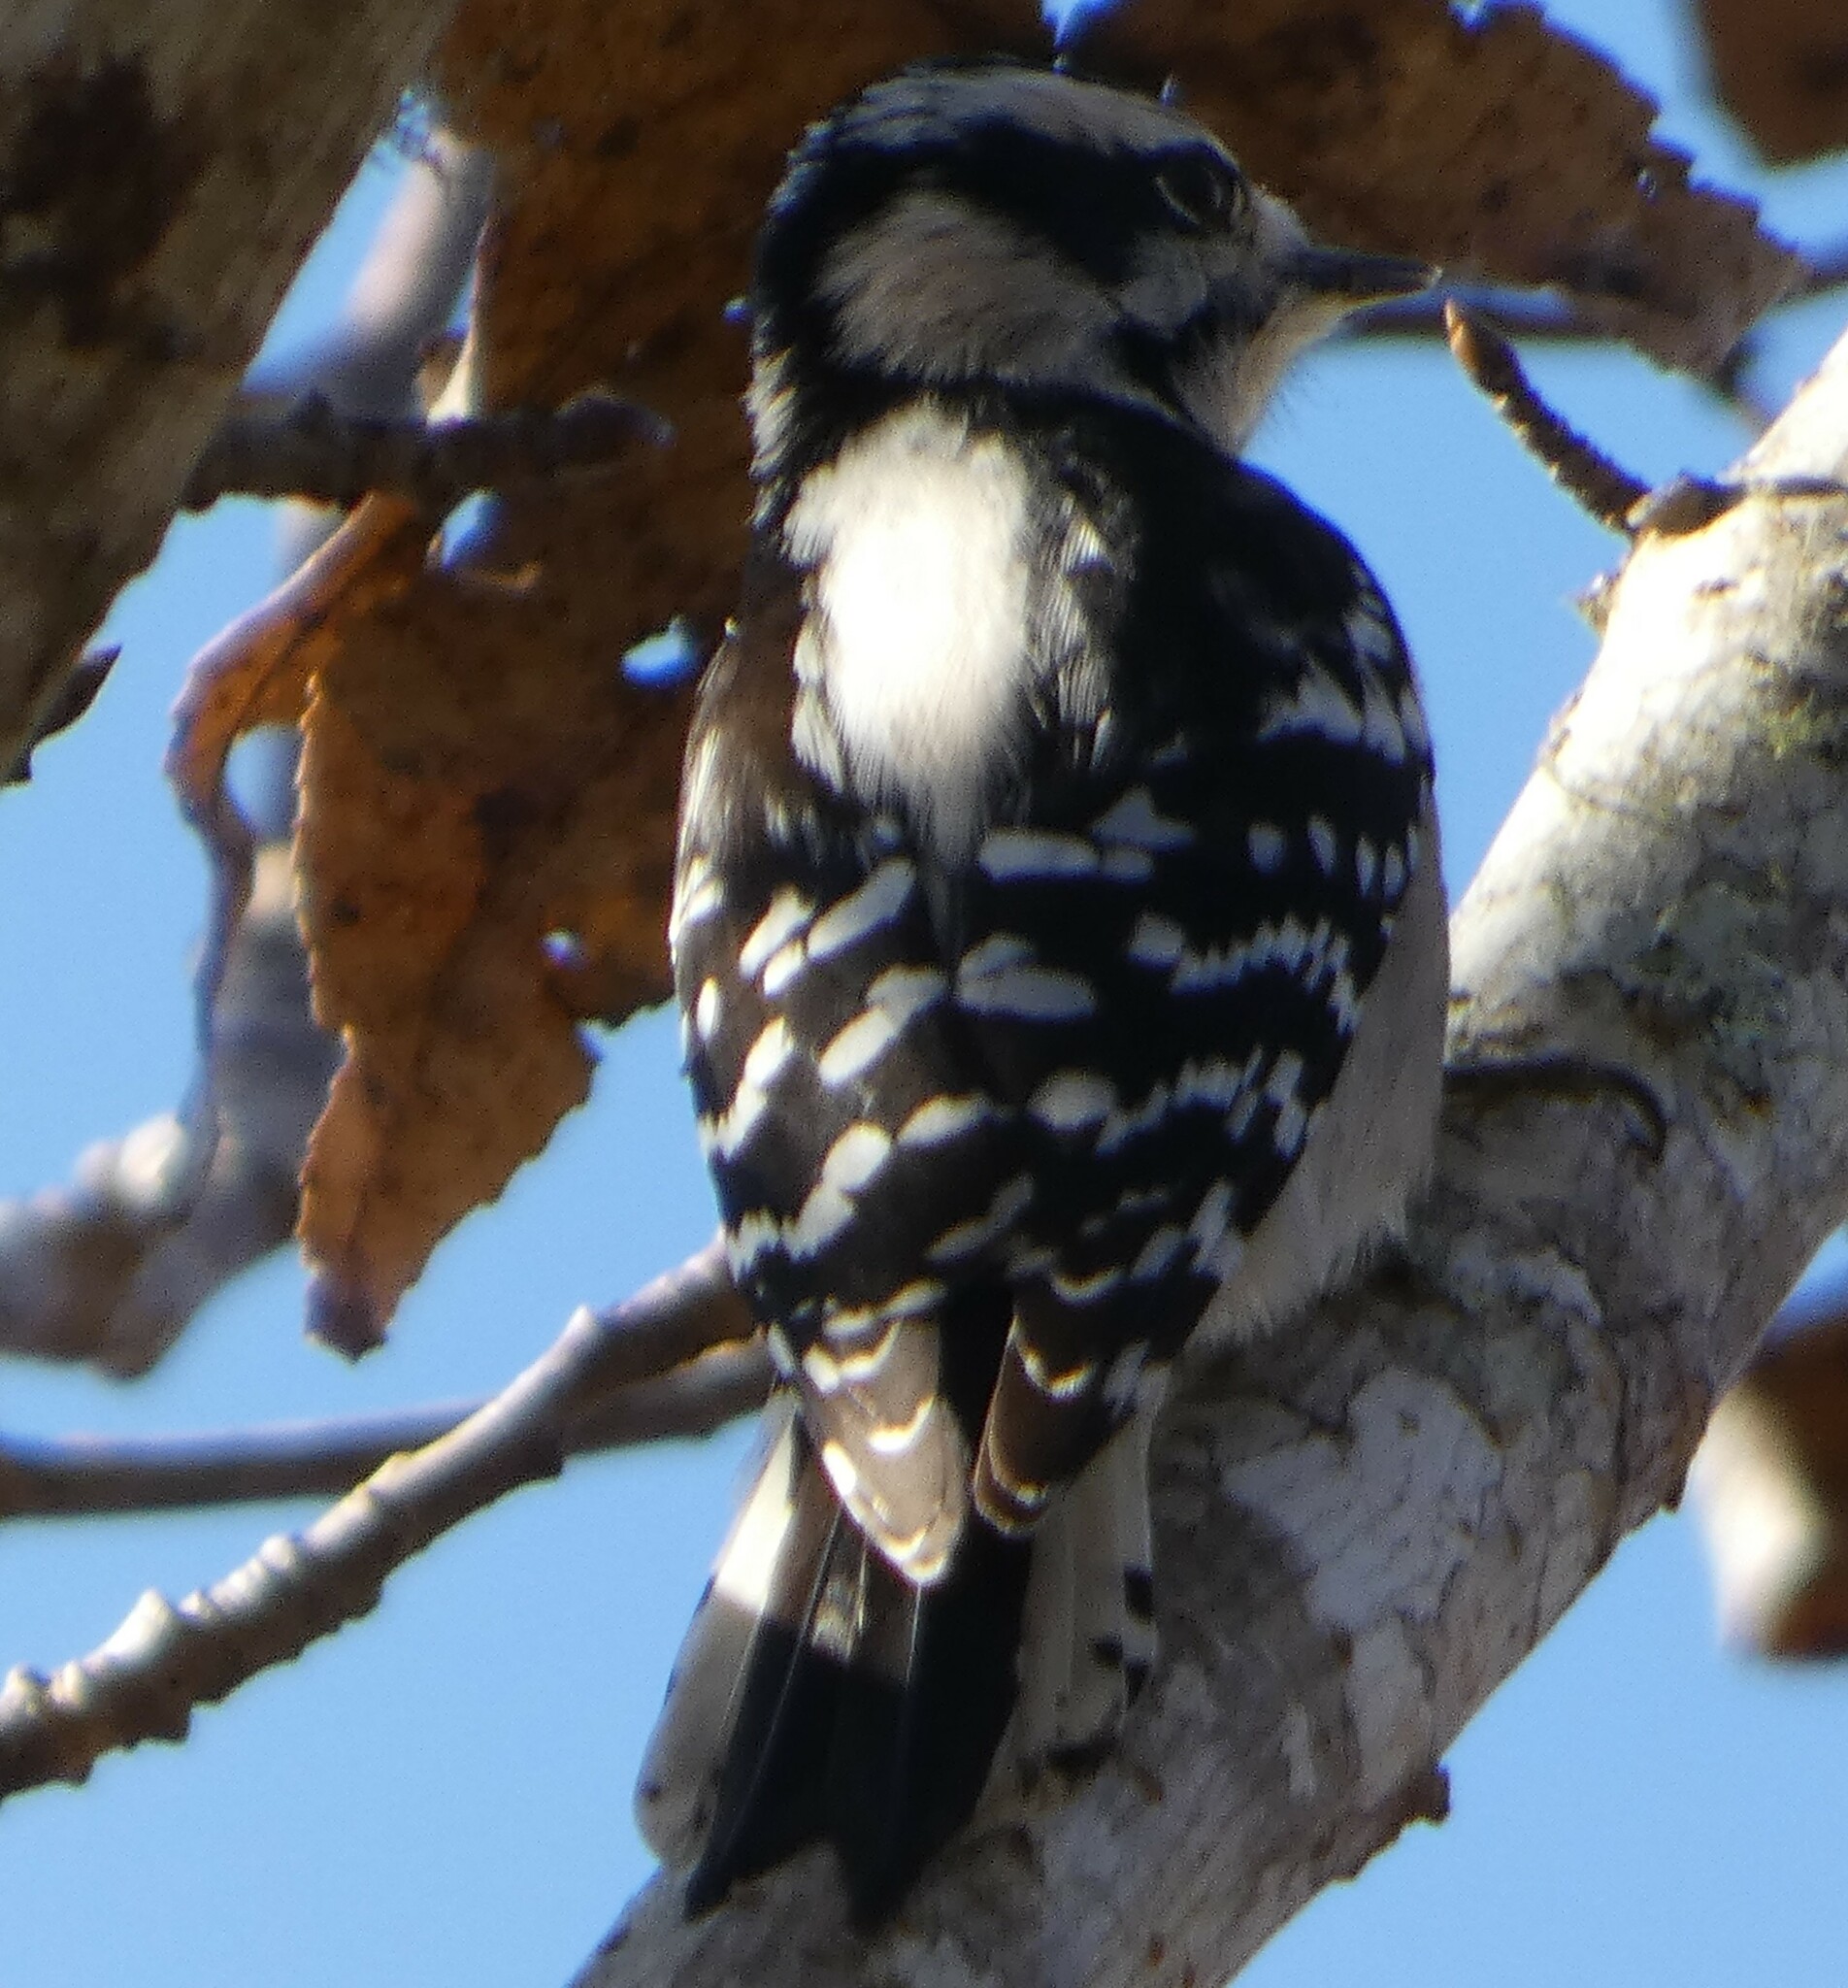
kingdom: Animalia
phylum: Chordata
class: Aves
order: Piciformes
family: Picidae
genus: Dryobates
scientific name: Dryobates pubescens
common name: Downy woodpecker
